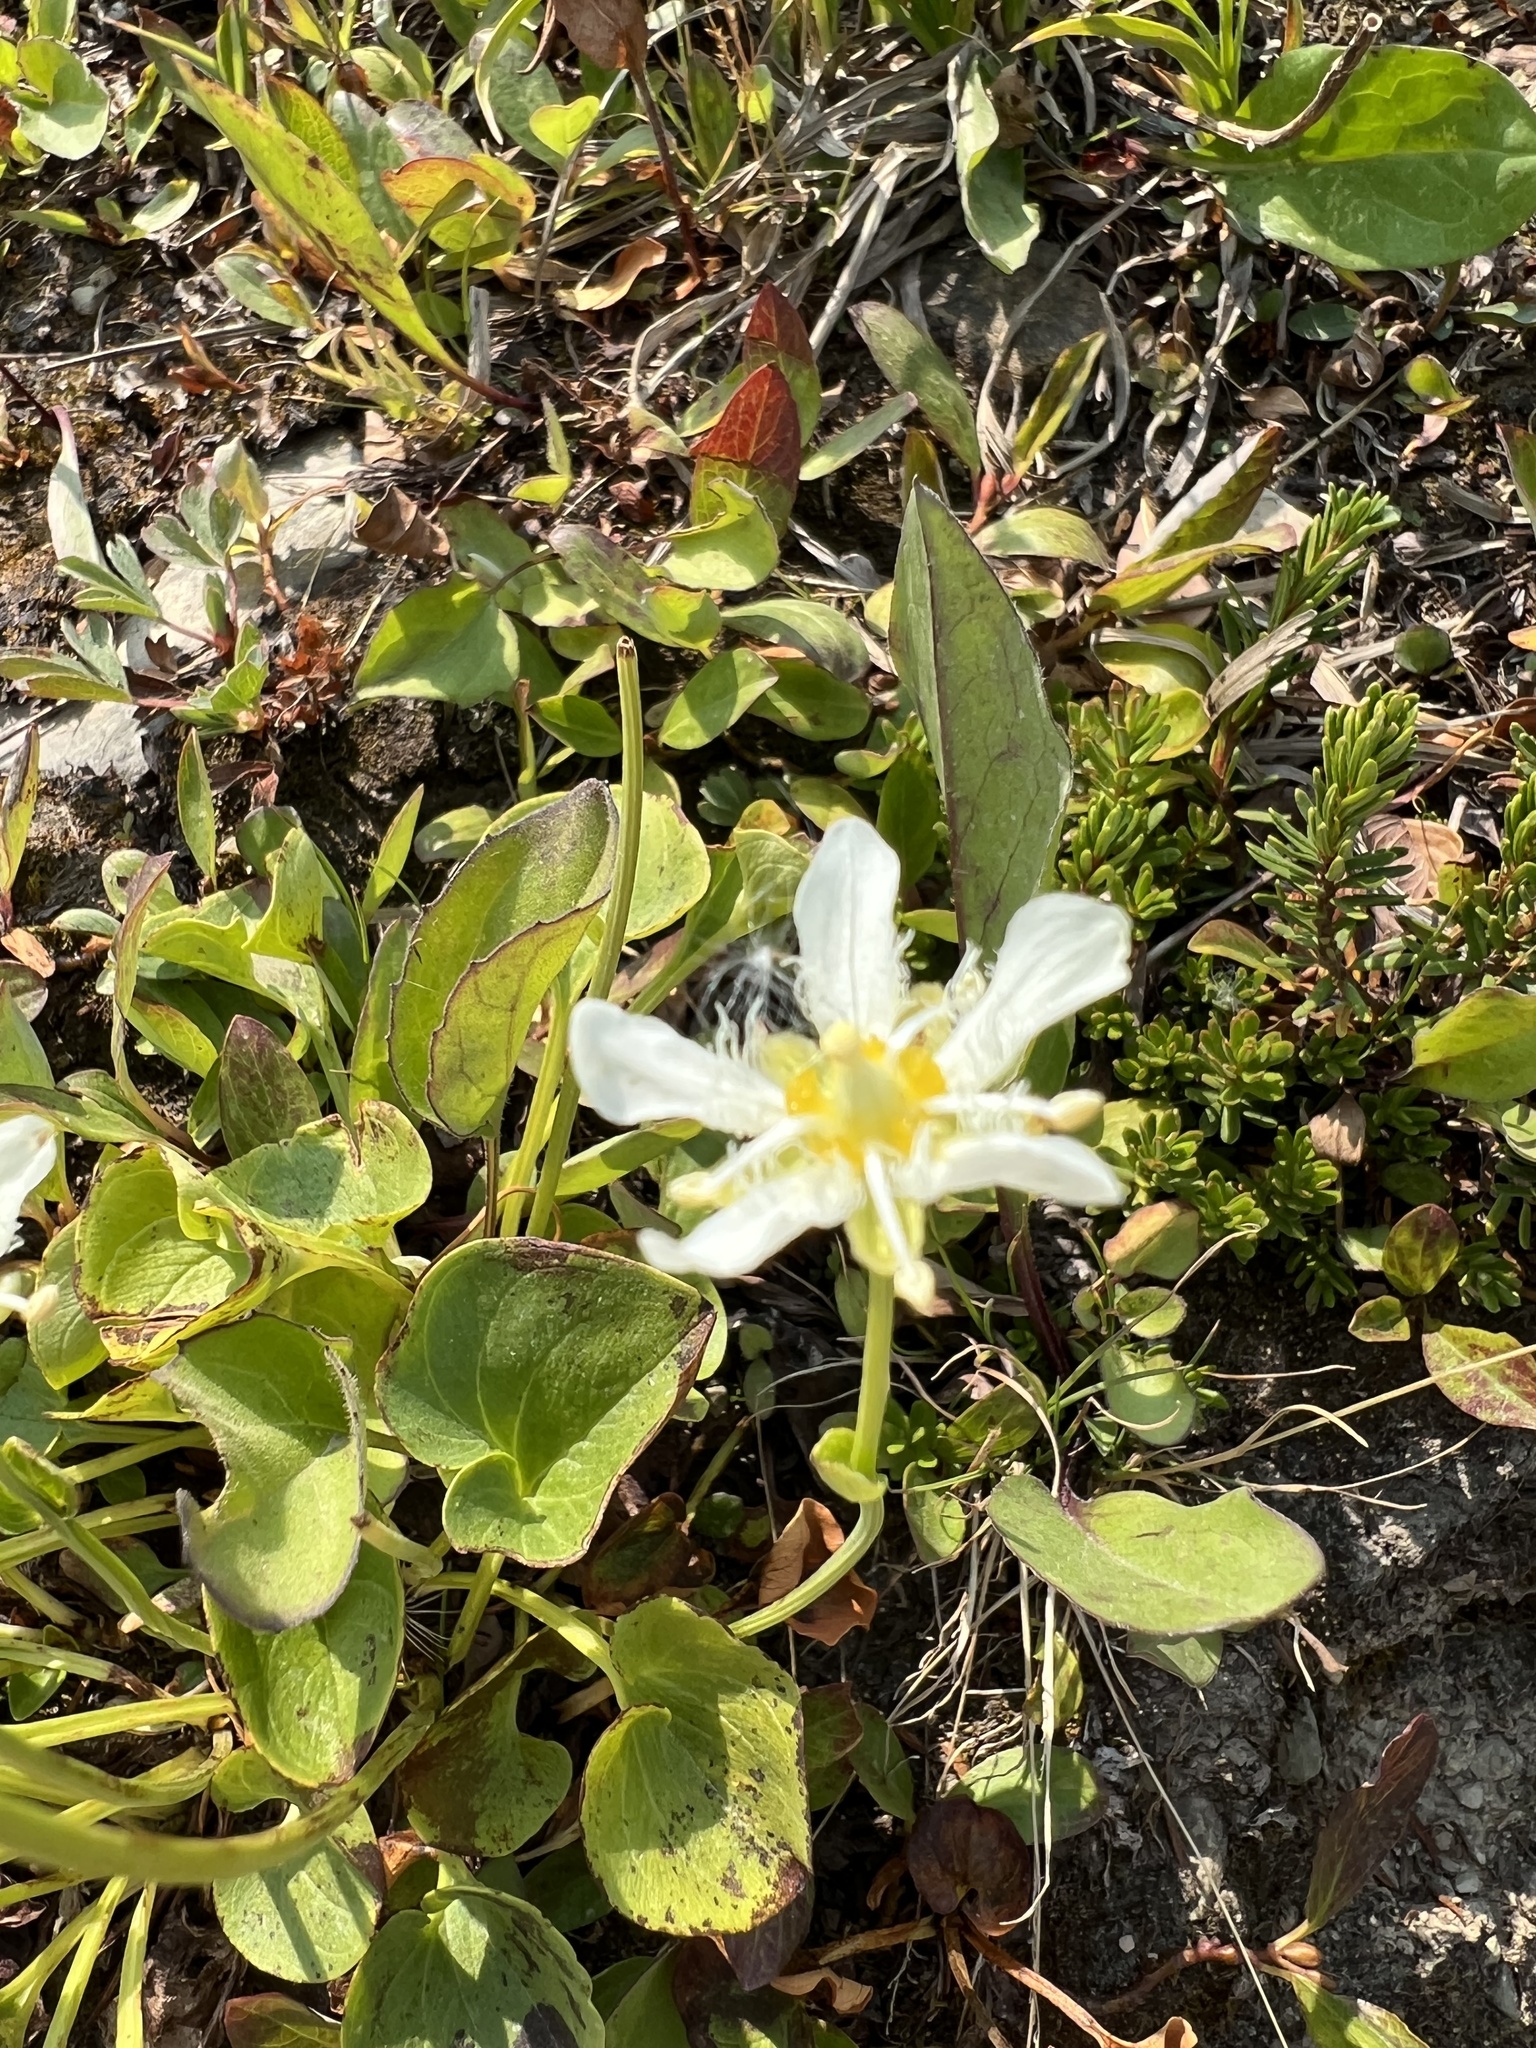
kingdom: Plantae
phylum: Tracheophyta
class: Magnoliopsida
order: Celastrales
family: Parnassiaceae
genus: Parnassia
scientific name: Parnassia fimbriata
